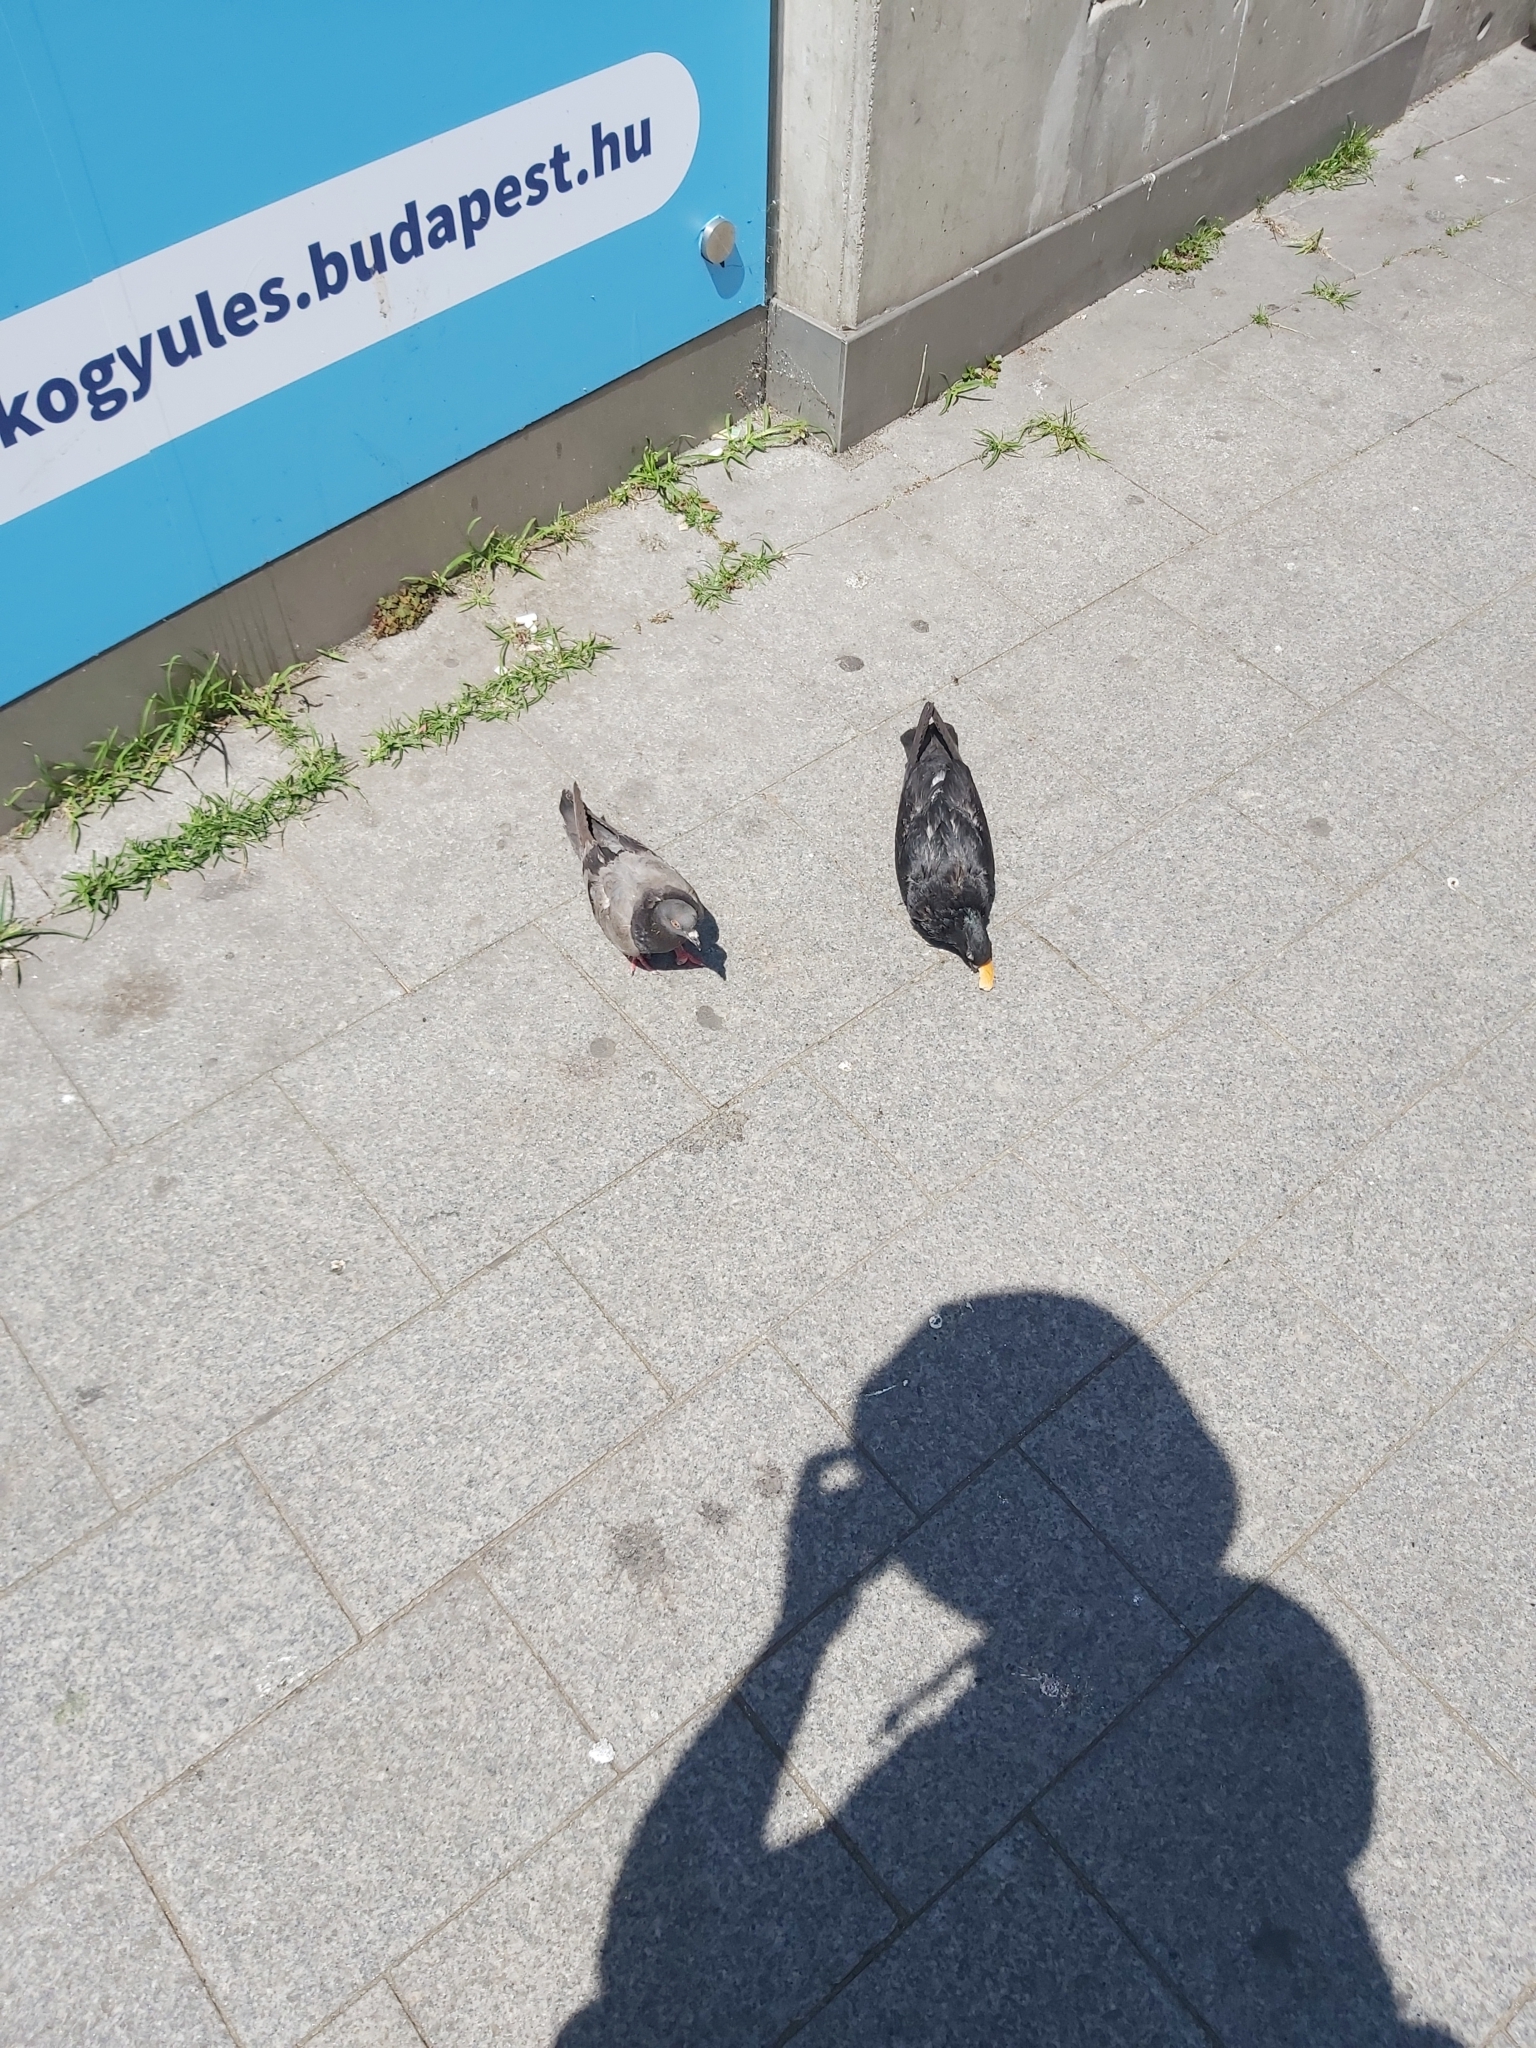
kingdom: Animalia
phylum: Chordata
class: Aves
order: Columbiformes
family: Columbidae
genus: Columba
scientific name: Columba livia
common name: Rock pigeon
